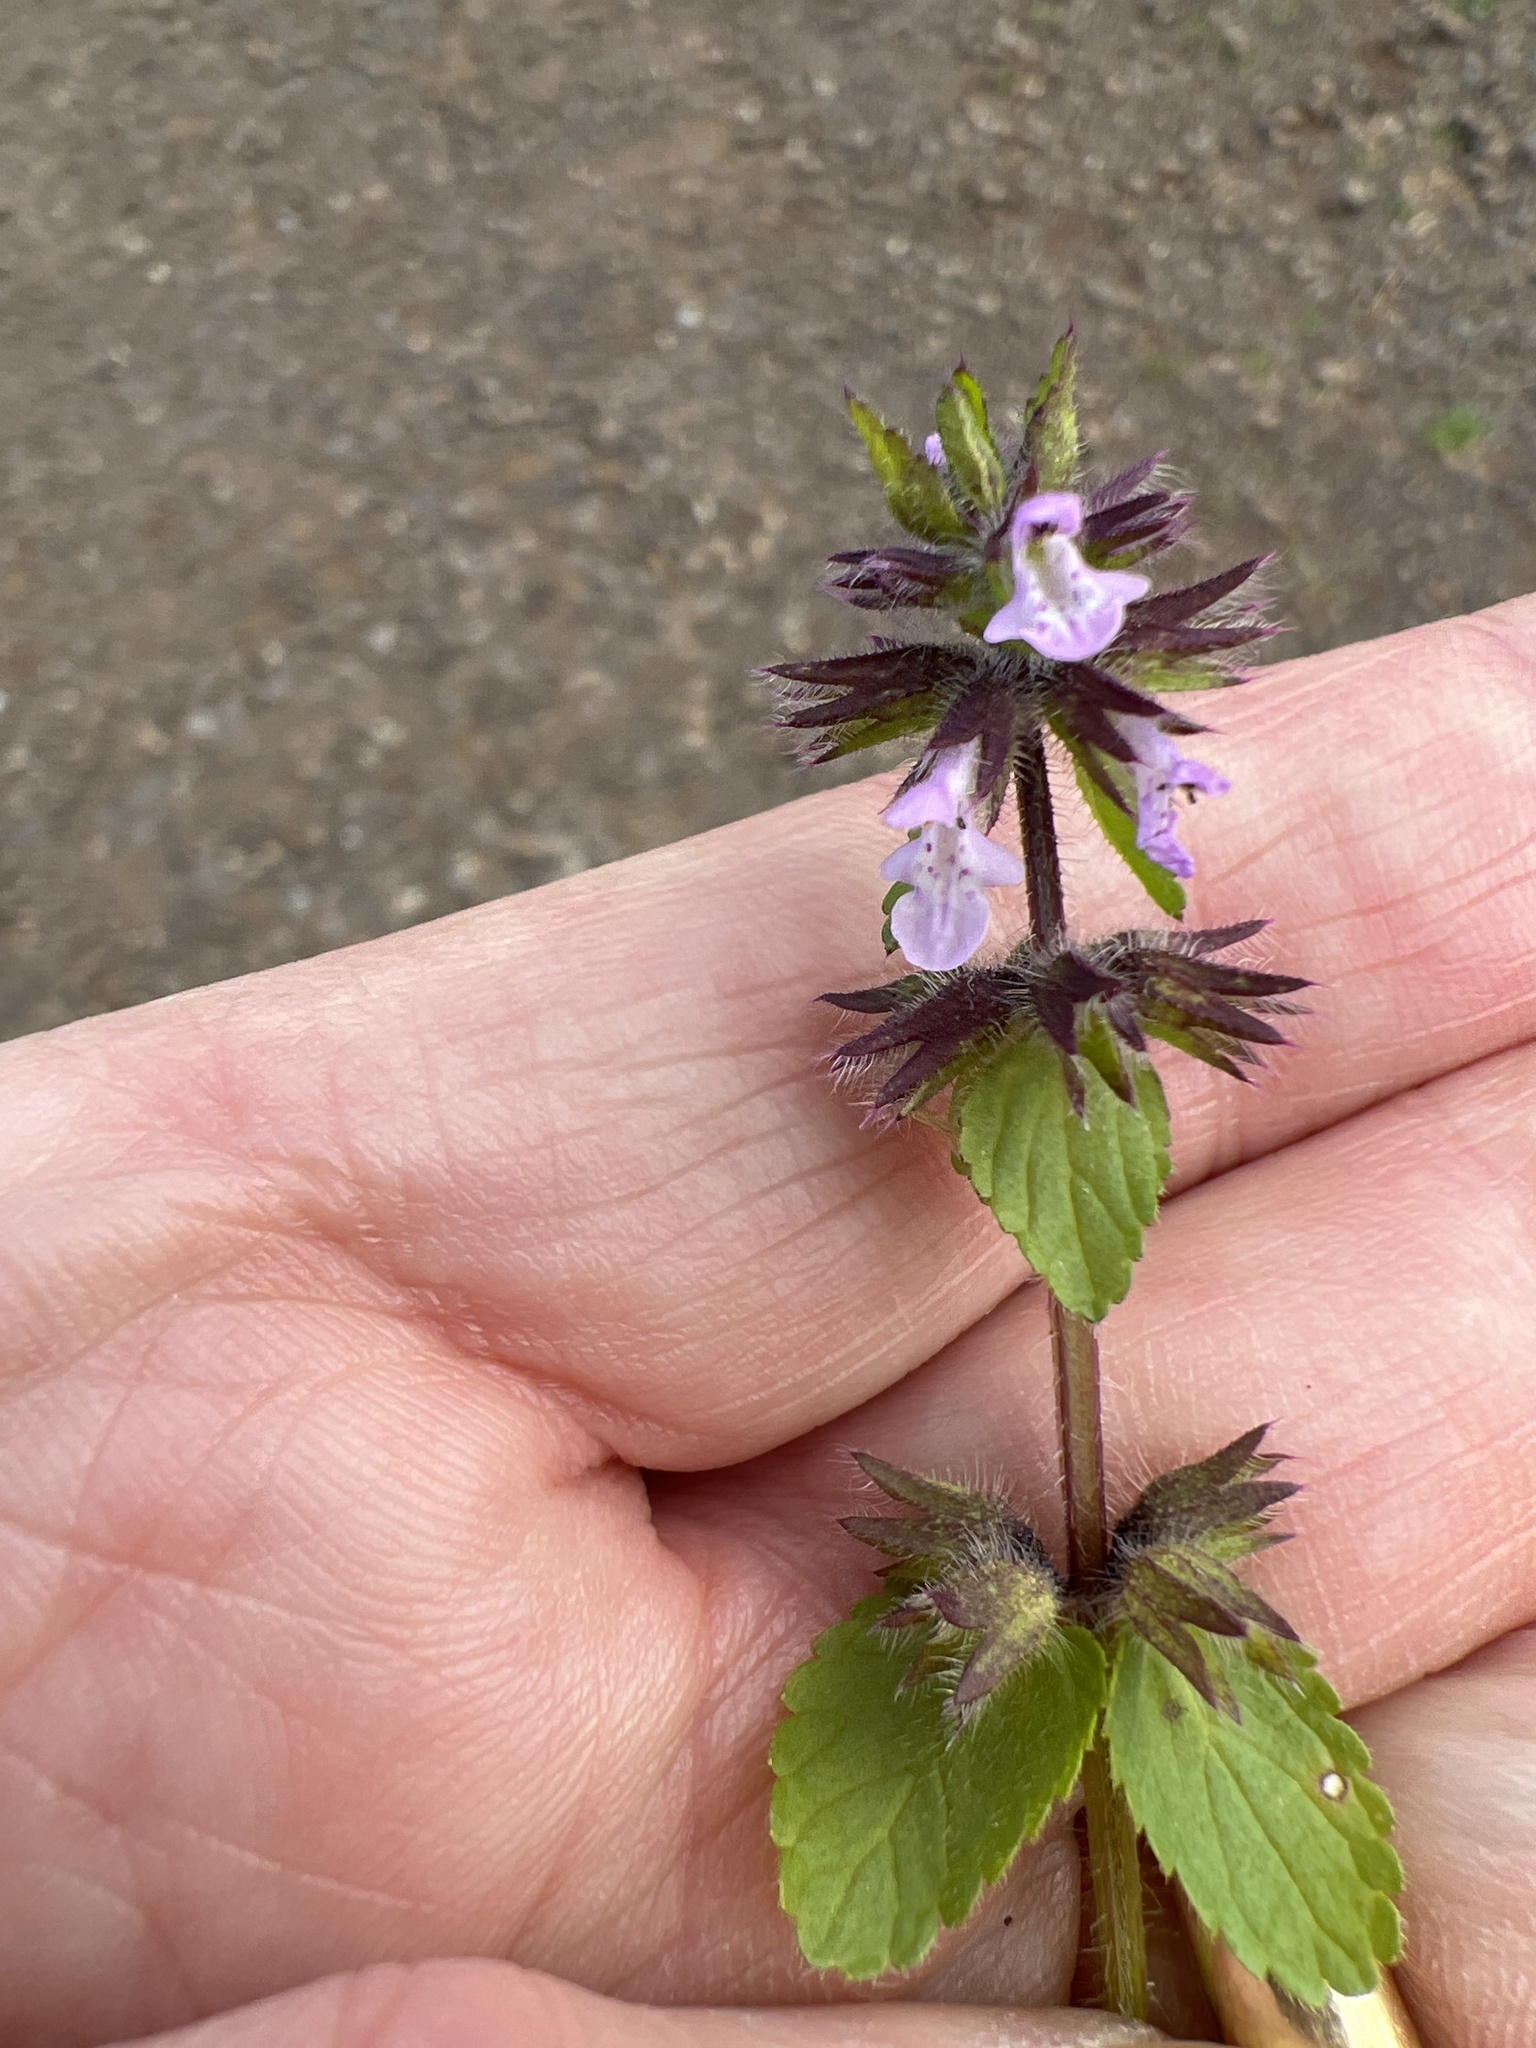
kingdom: Plantae
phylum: Tracheophyta
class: Magnoliopsida
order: Lamiales
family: Lamiaceae
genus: Stachys
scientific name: Stachys arvensis
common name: Field woundwort
